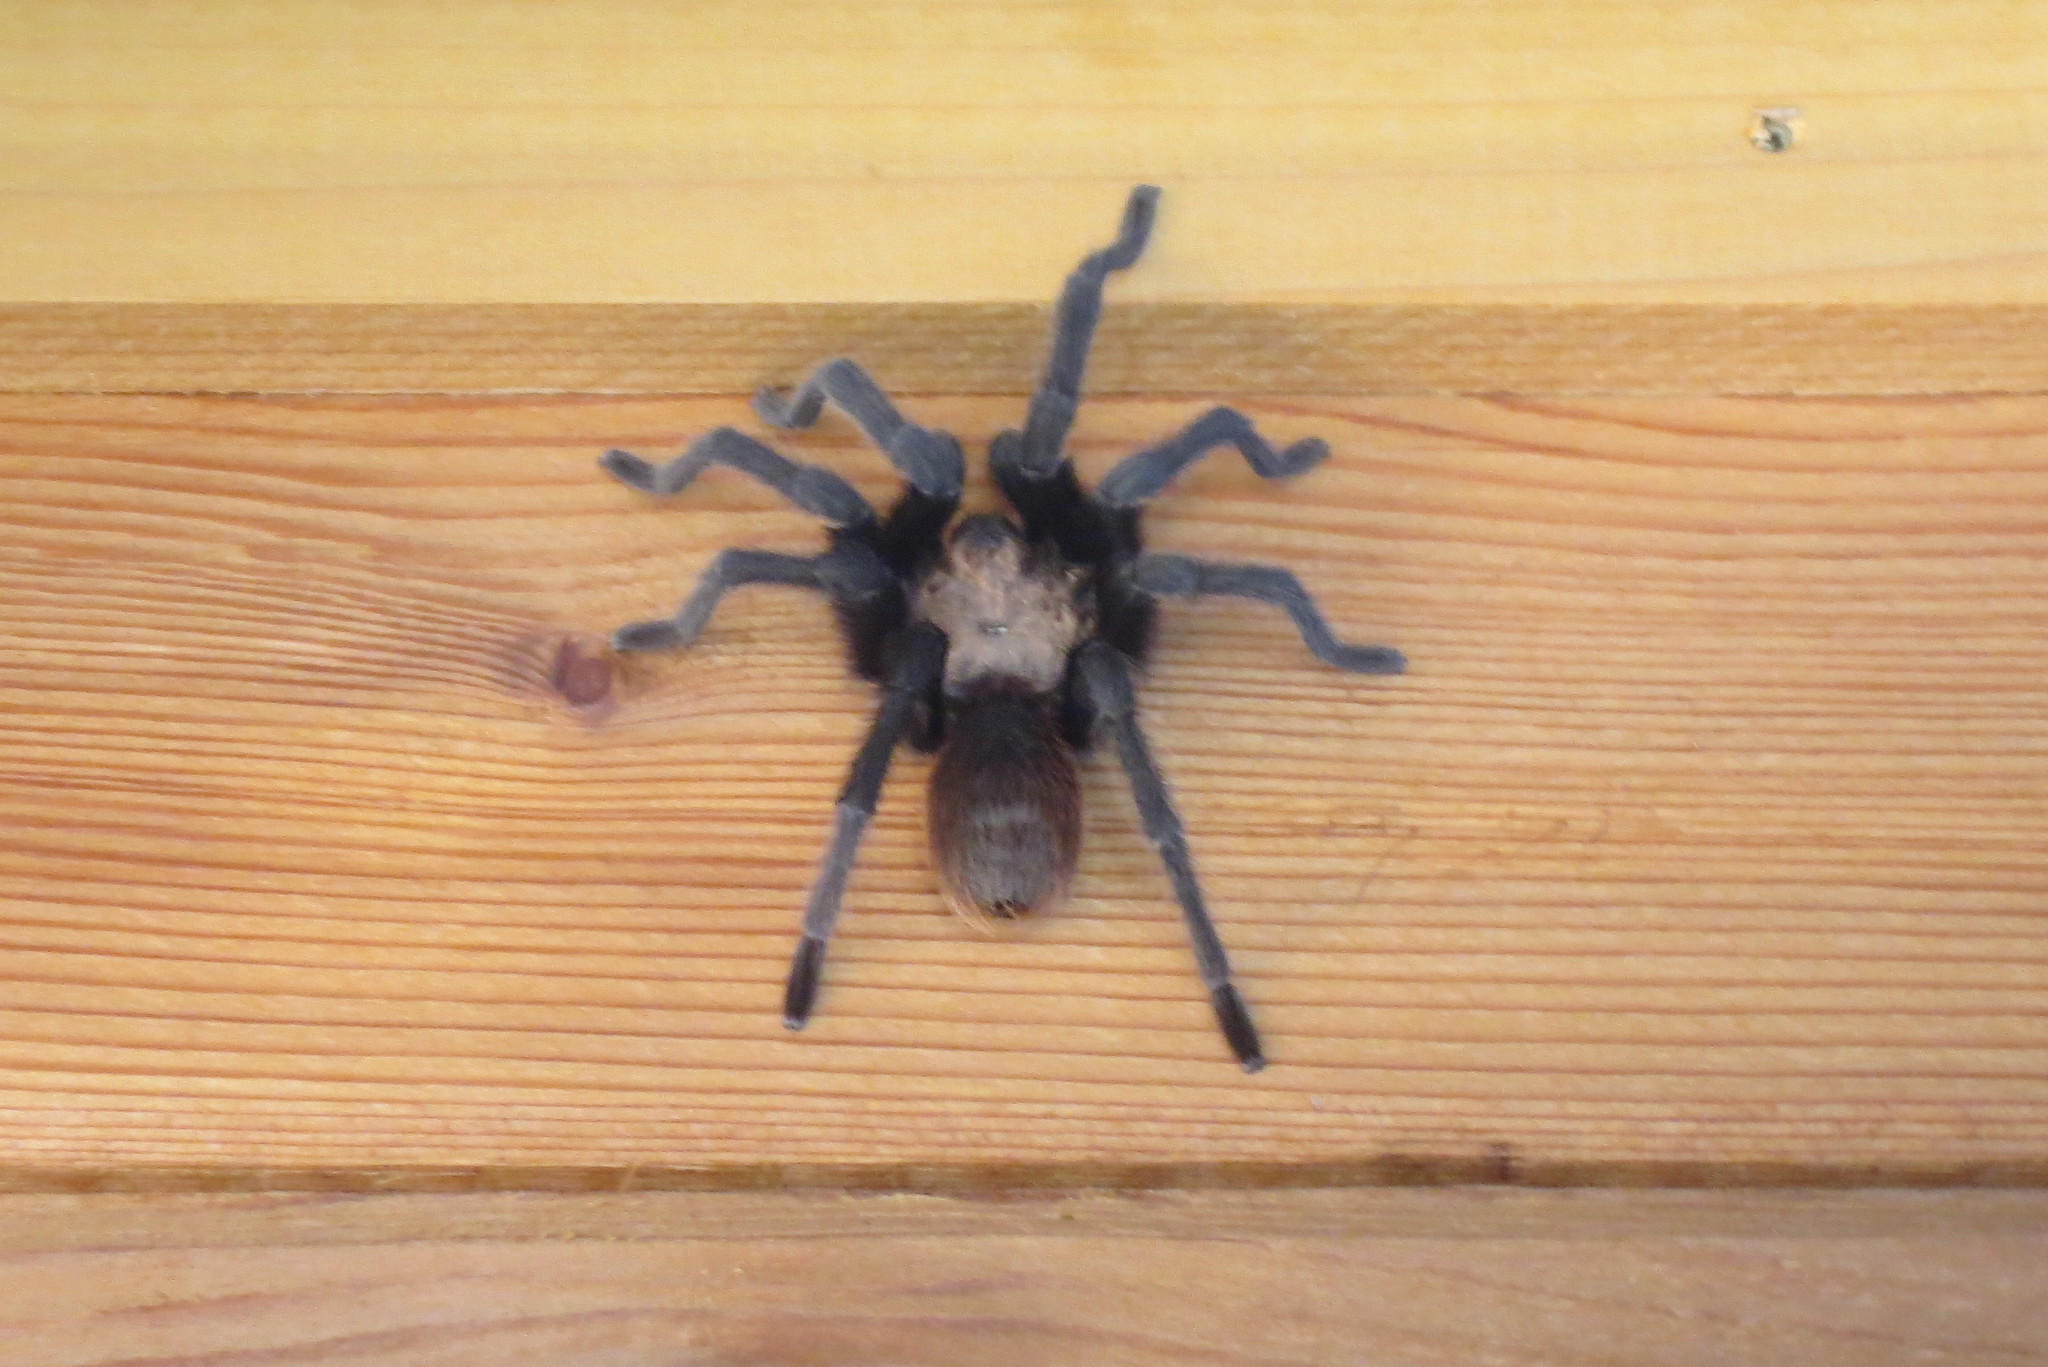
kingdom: Animalia
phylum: Arthropoda
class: Arachnida
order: Araneae
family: Theraphosidae
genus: Aphonopelma
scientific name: Aphonopelma hentzi
